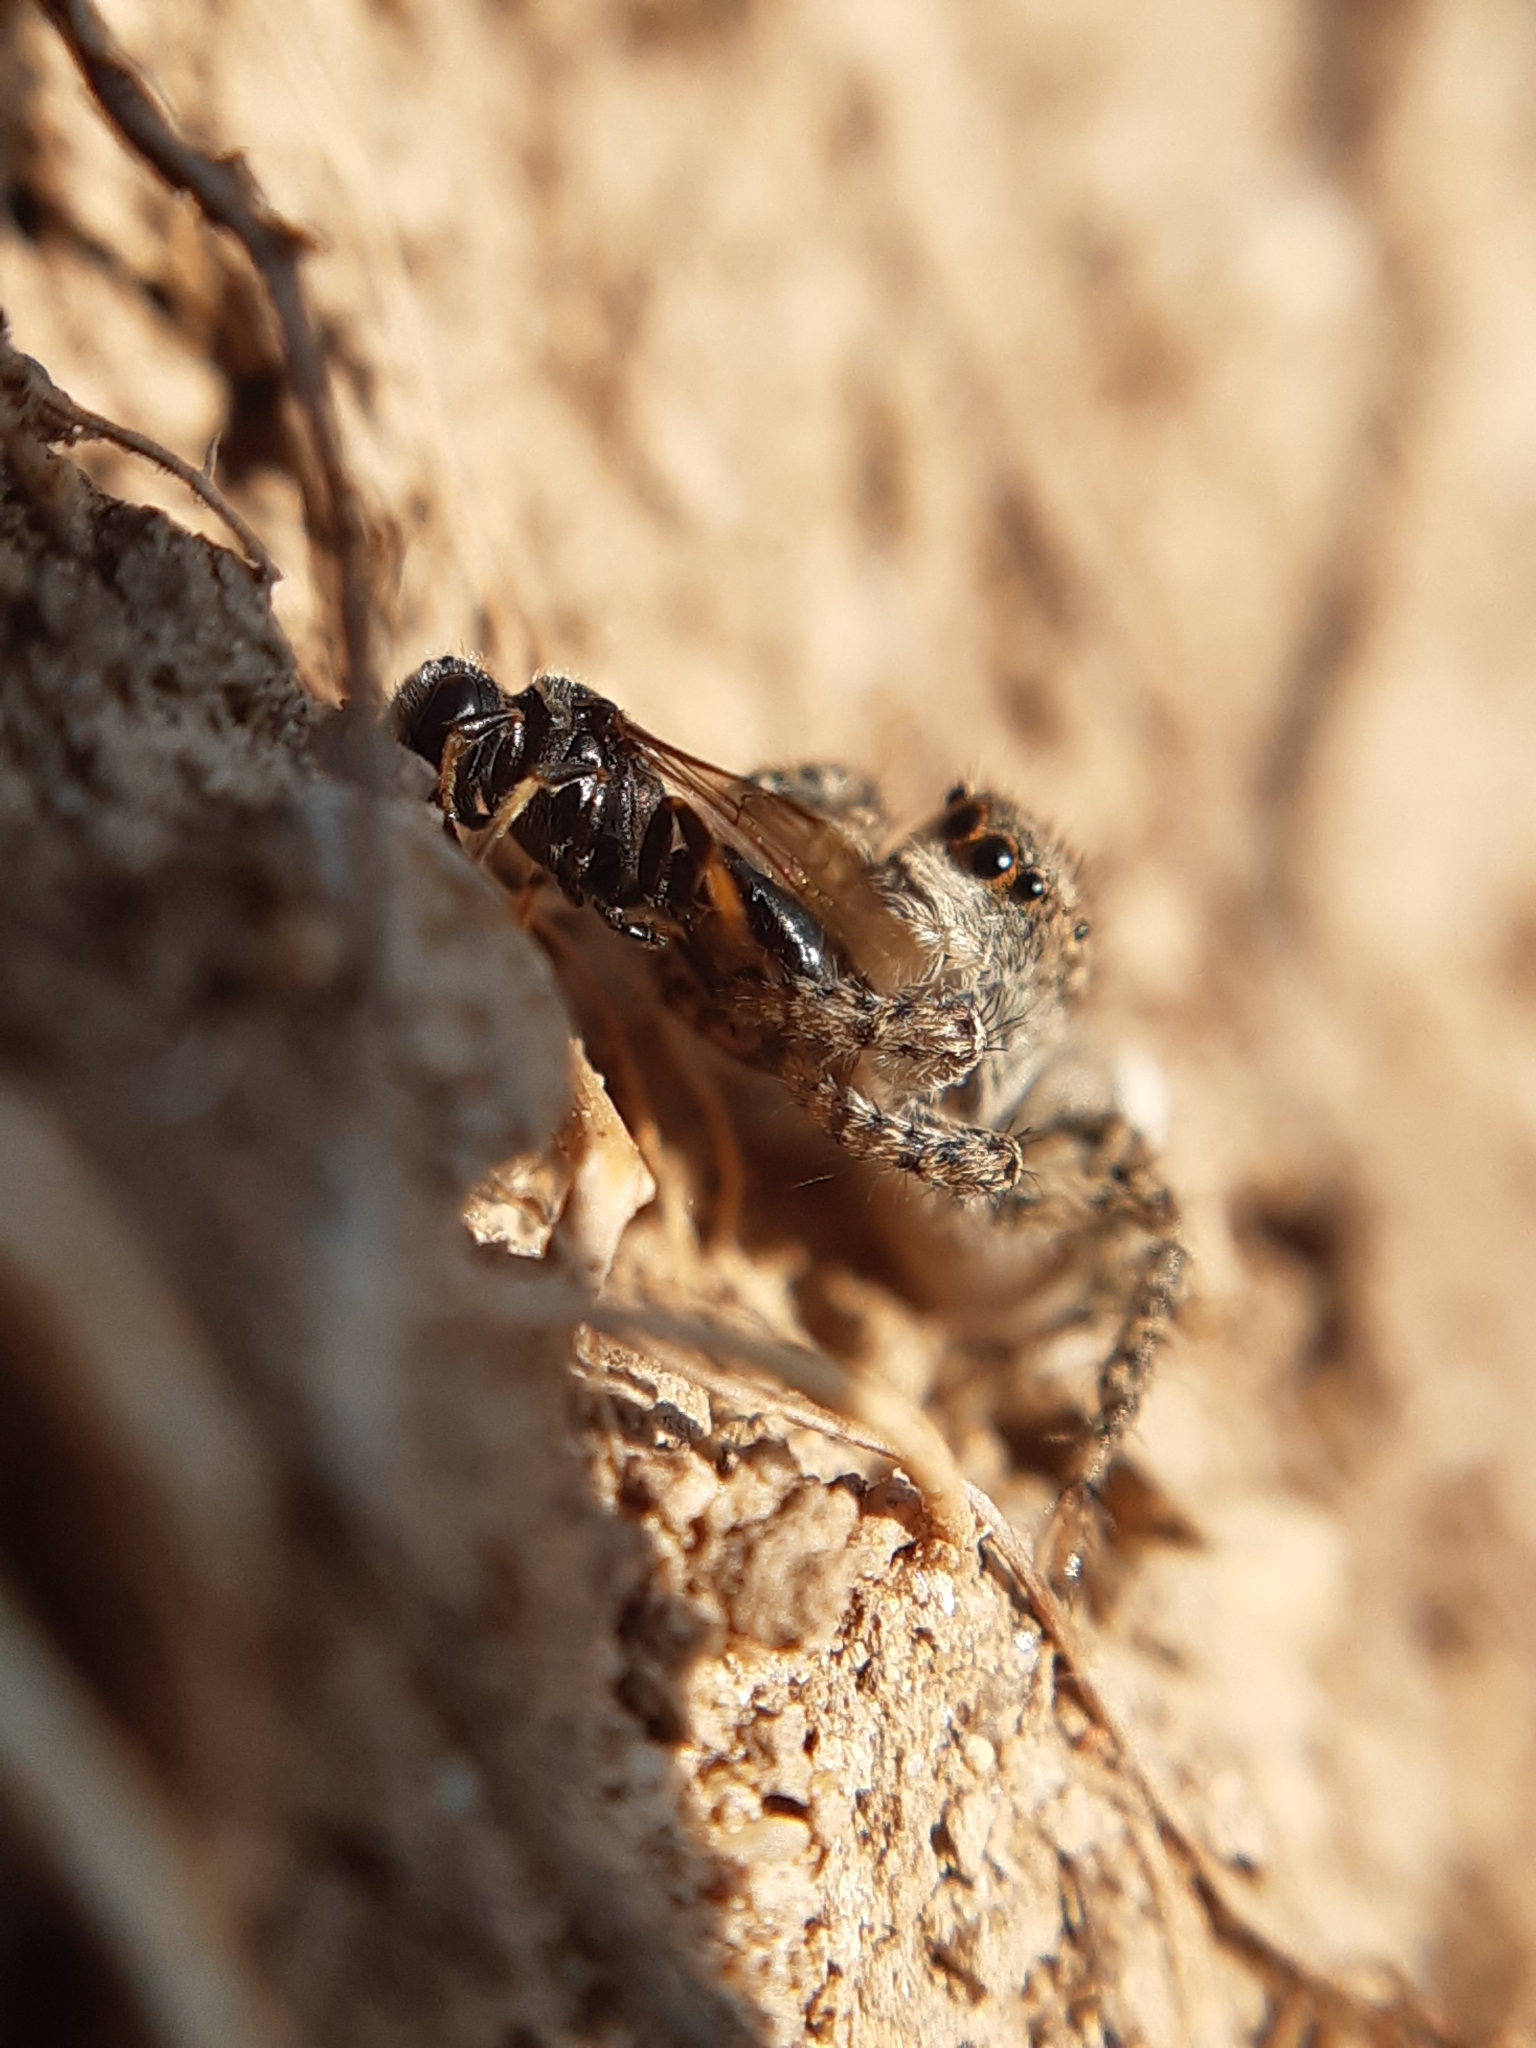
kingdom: Animalia
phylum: Arthropoda
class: Arachnida
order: Araneae
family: Salticidae
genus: Asianellus
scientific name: Asianellus festivus
